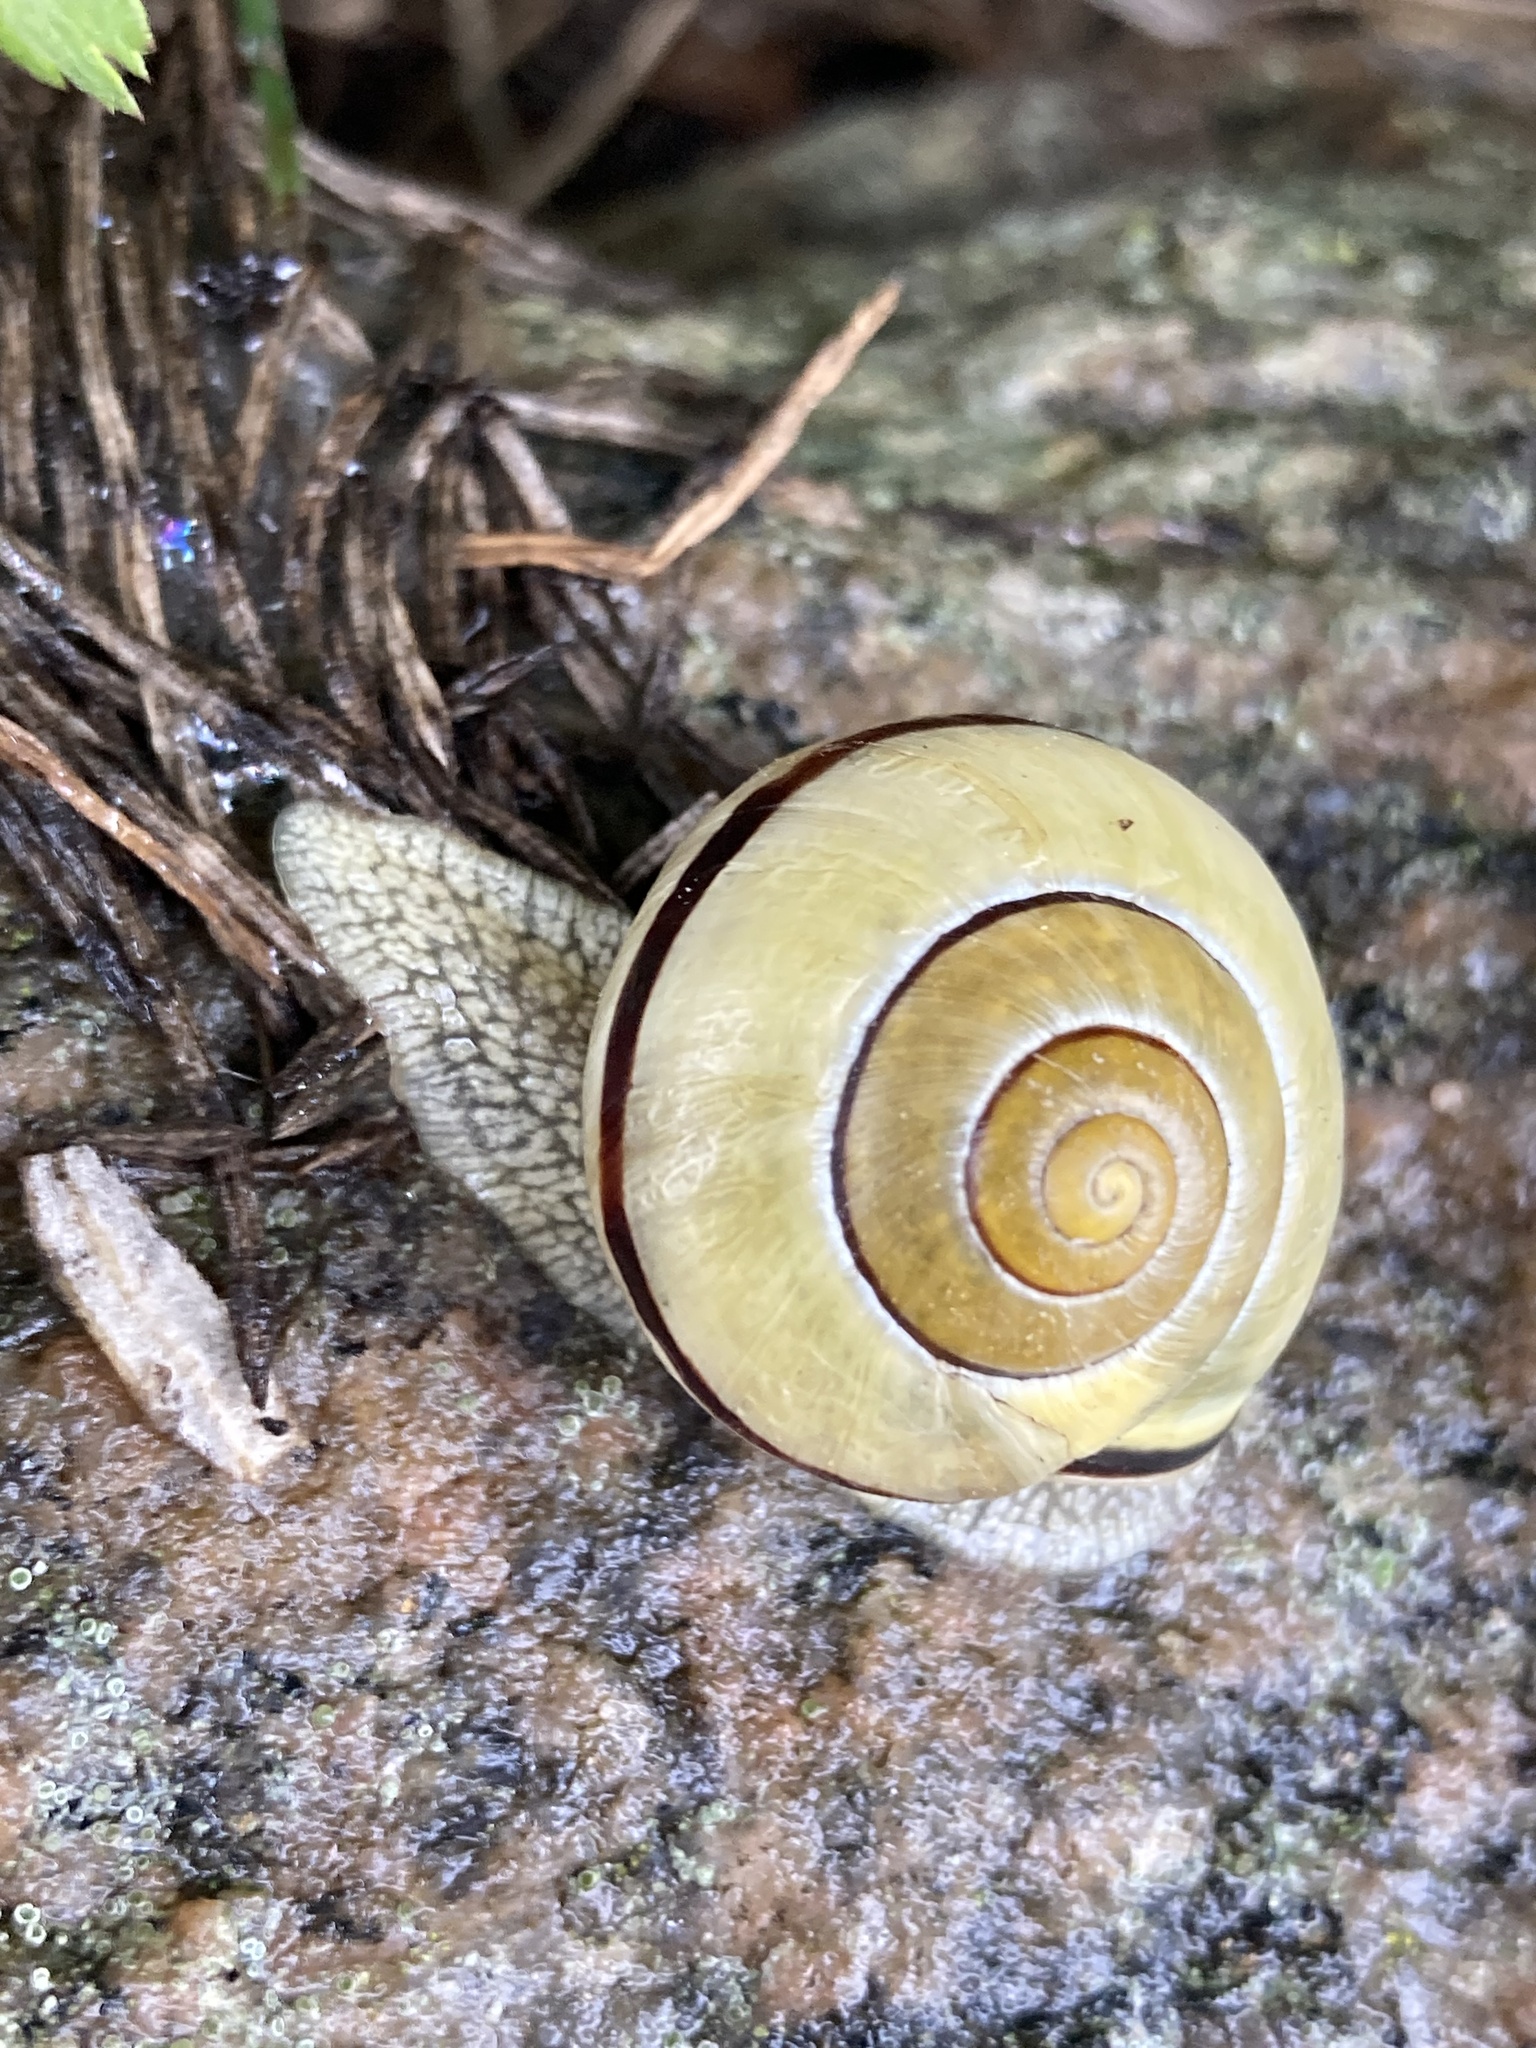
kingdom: Animalia
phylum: Mollusca
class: Gastropoda
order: Stylommatophora
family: Helicidae
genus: Cepaea
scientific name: Cepaea nemoralis
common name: Grovesnail
